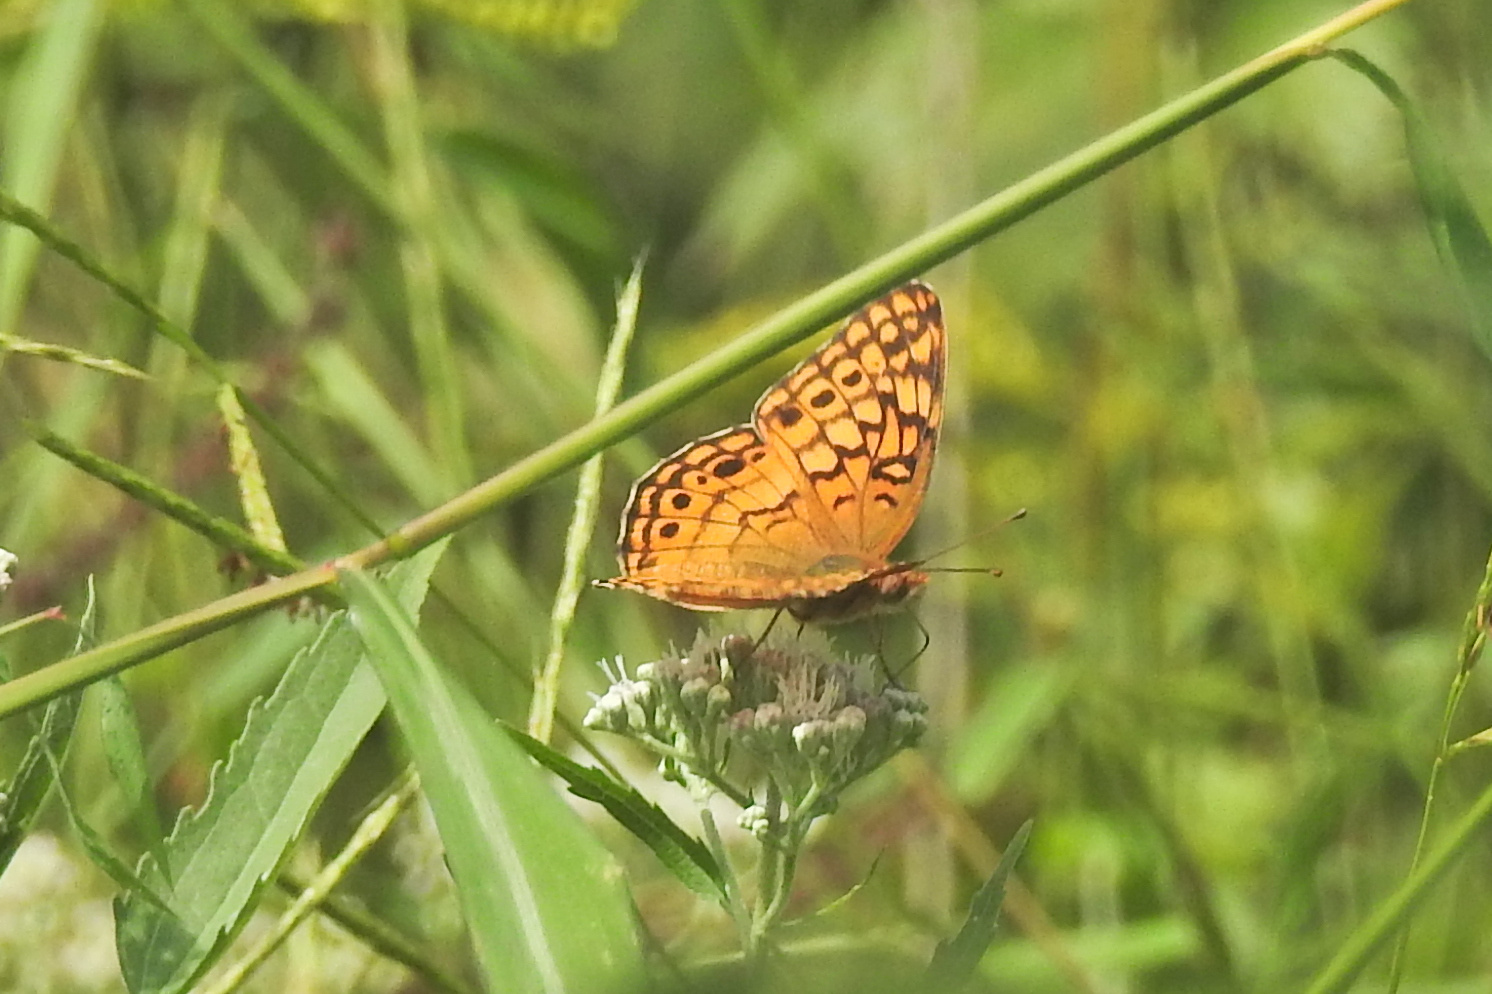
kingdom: Animalia
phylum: Arthropoda
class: Insecta
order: Lepidoptera
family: Nymphalidae
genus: Euptoieta
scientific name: Euptoieta claudia
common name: Variegated fritillary
